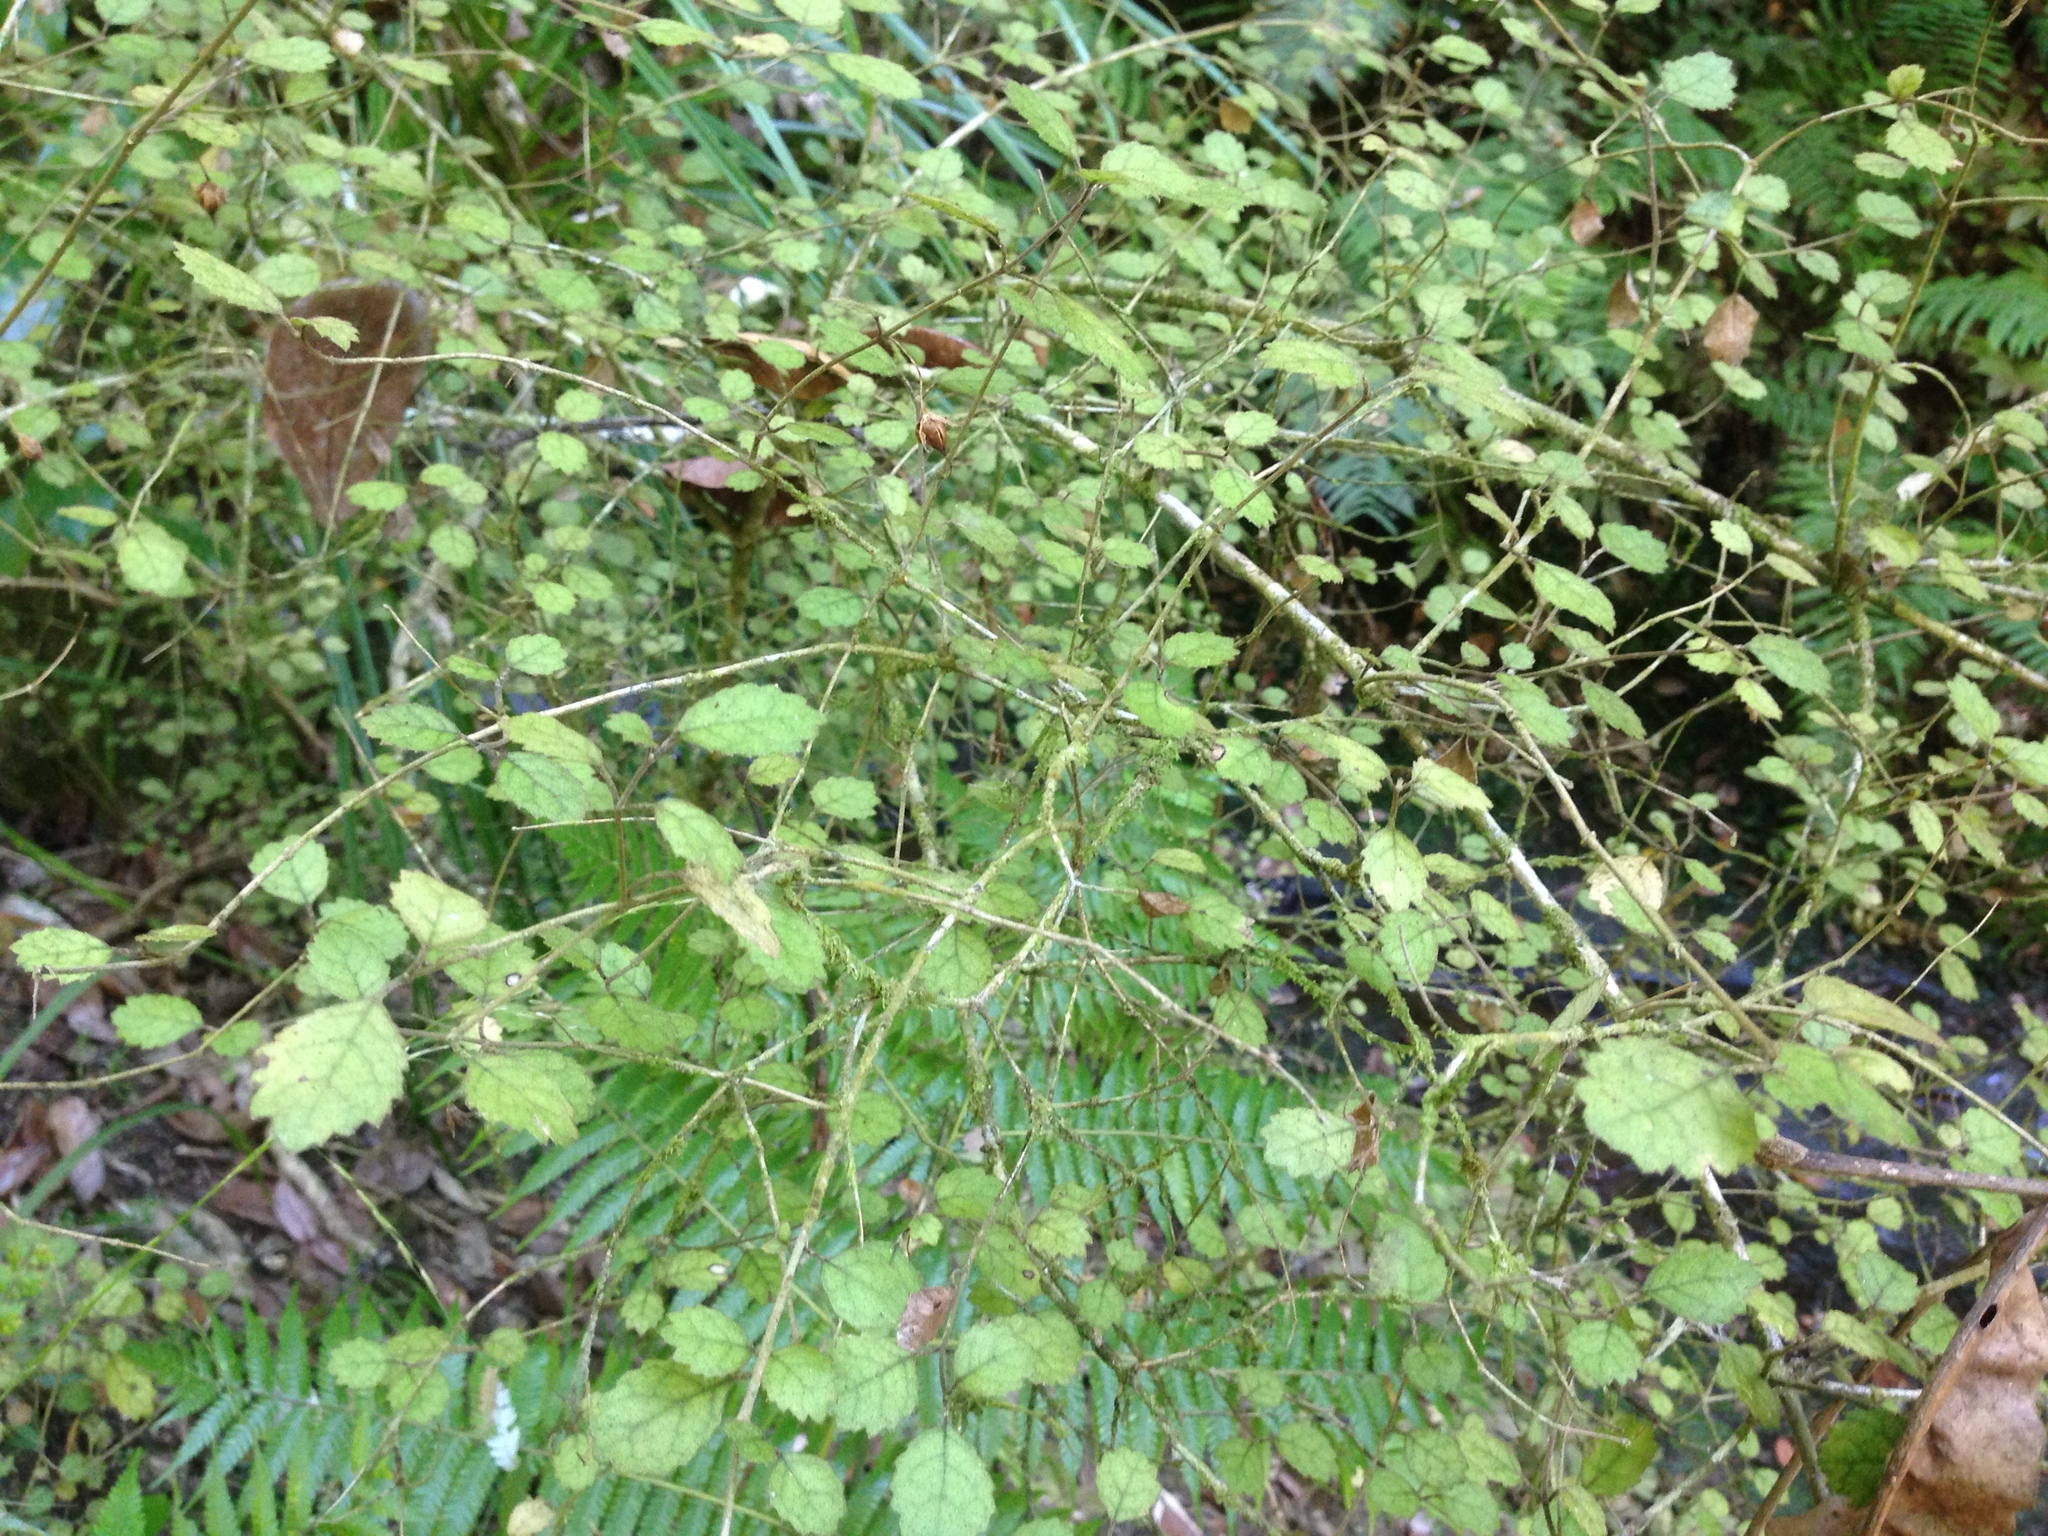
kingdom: Plantae
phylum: Tracheophyta
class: Magnoliopsida
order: Lamiales
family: Gesneriaceae
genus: Rhabdothamnus
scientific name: Rhabdothamnus solandri
